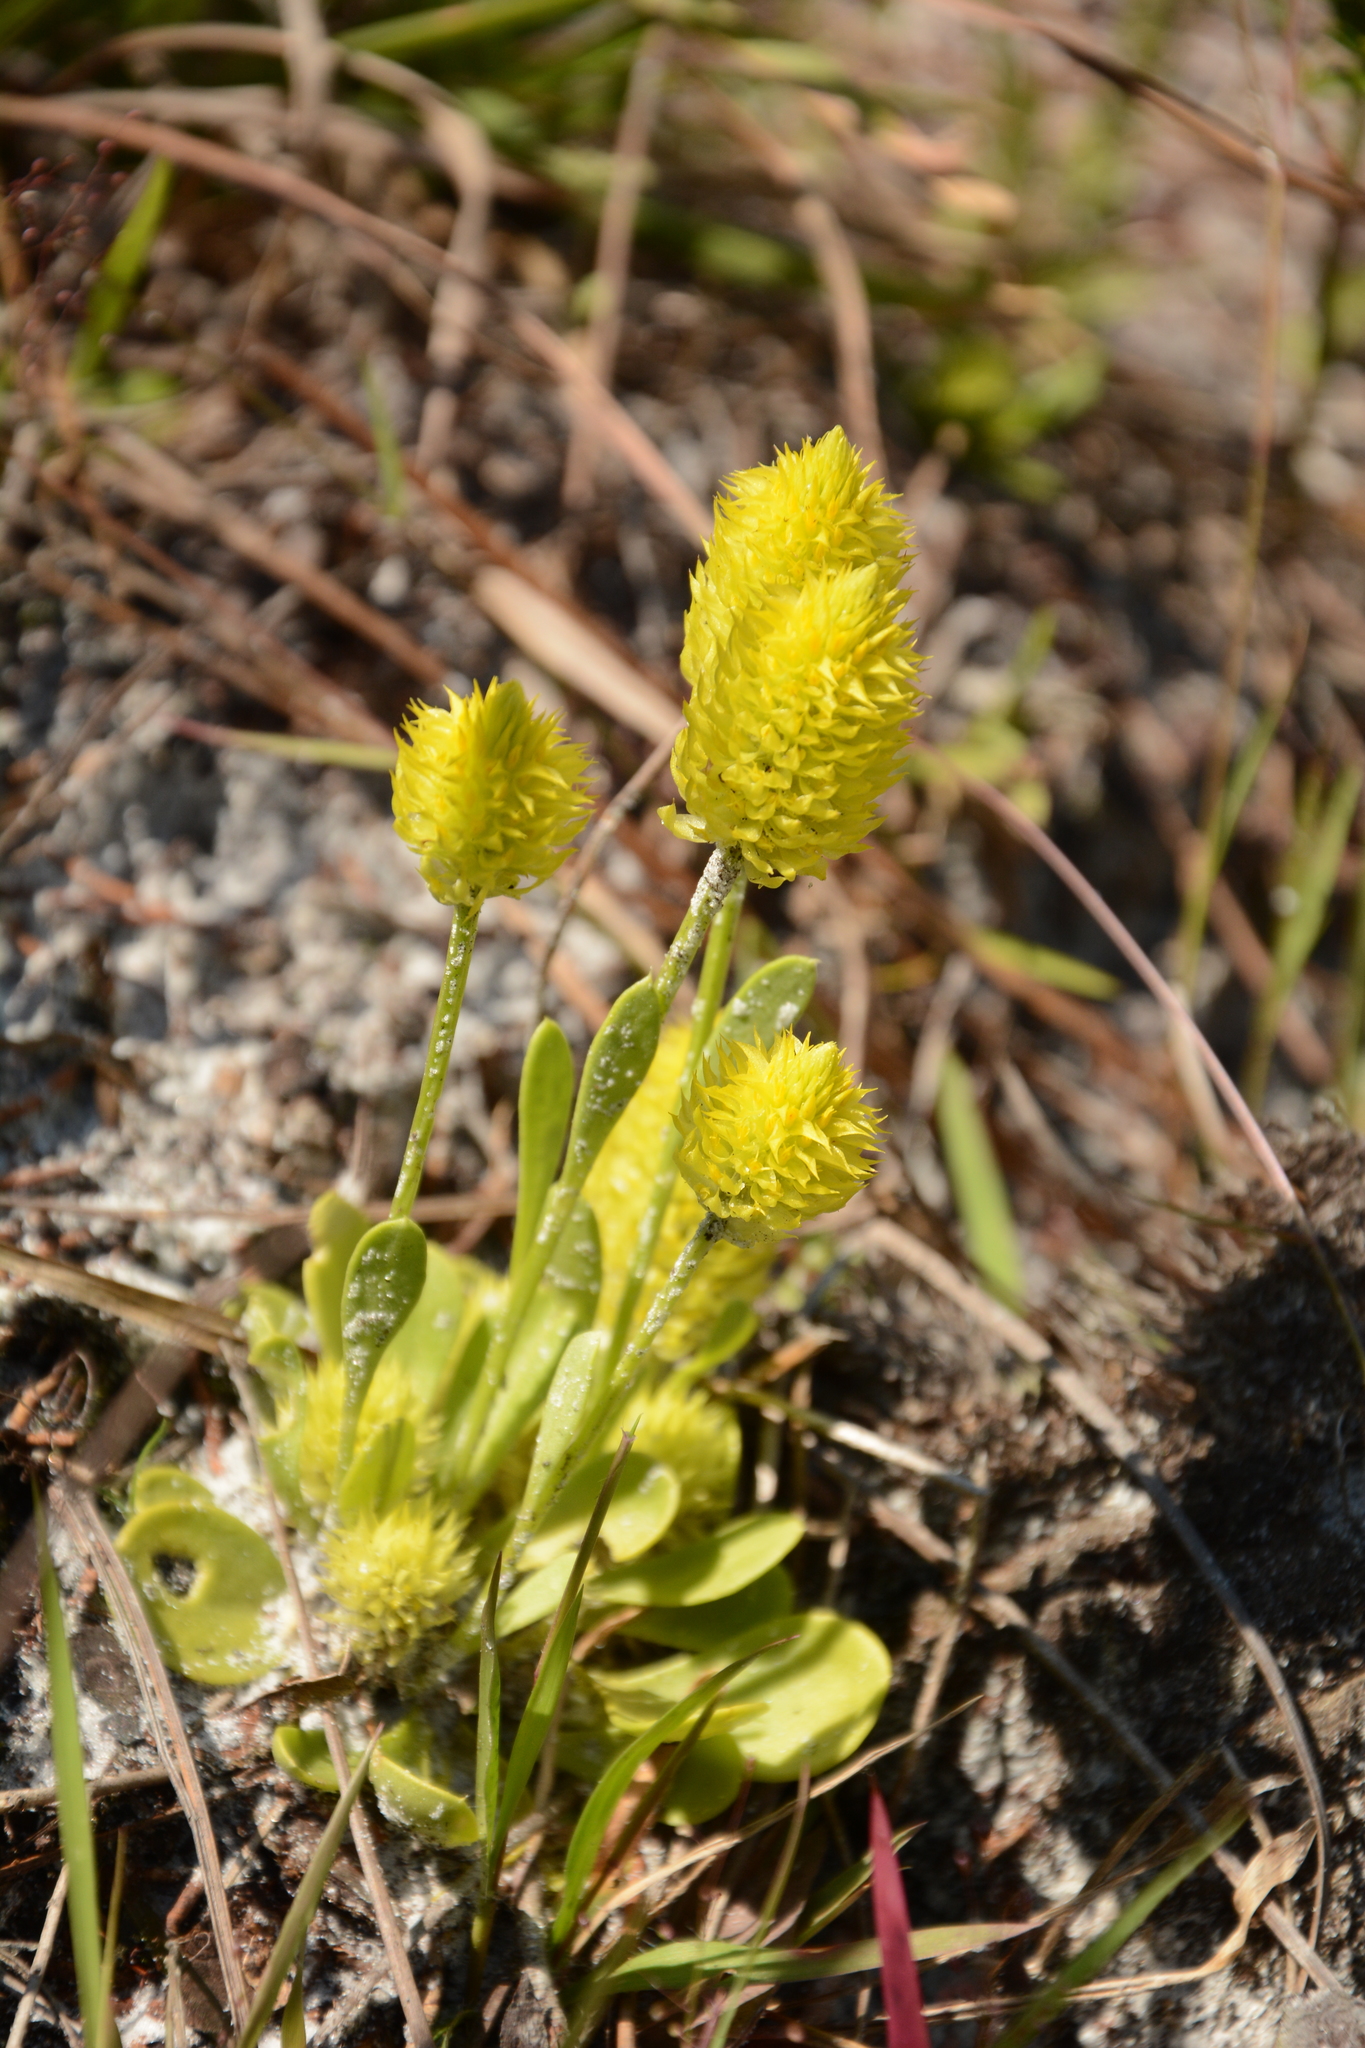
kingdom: Plantae
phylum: Tracheophyta
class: Magnoliopsida
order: Fabales
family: Polygalaceae
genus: Polygala
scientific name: Polygala lutea
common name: Orange milkwort
